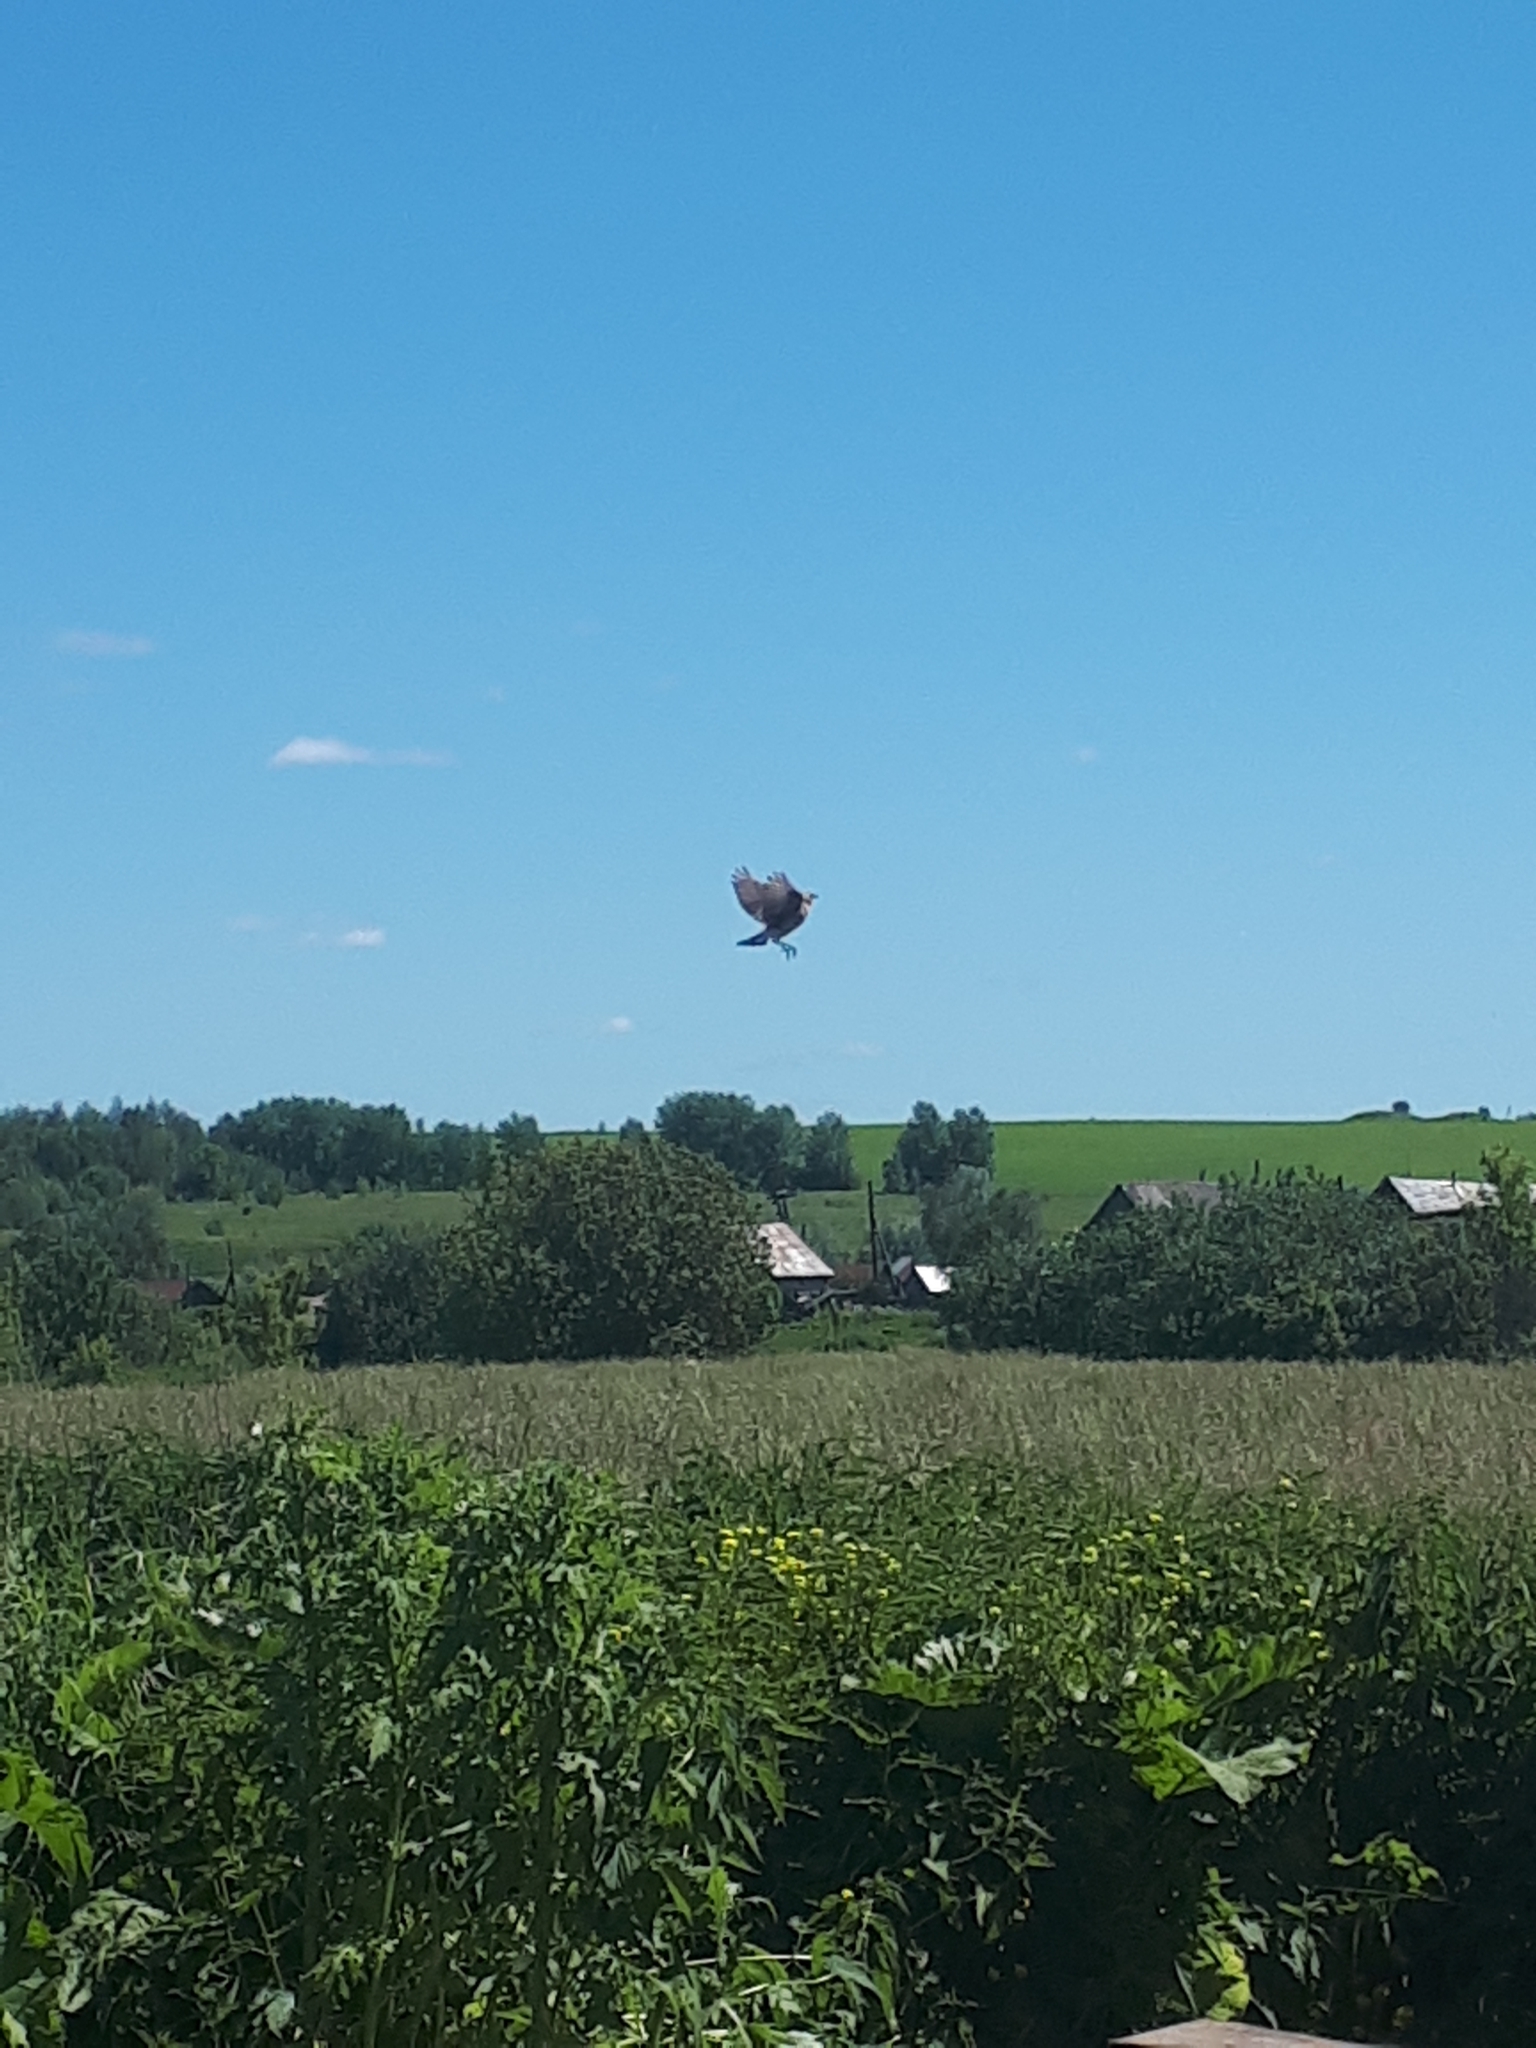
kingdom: Animalia
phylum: Chordata
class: Aves
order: Passeriformes
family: Muscicapidae
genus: Oenanthe
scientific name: Oenanthe oenanthe
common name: Northern wheatear
